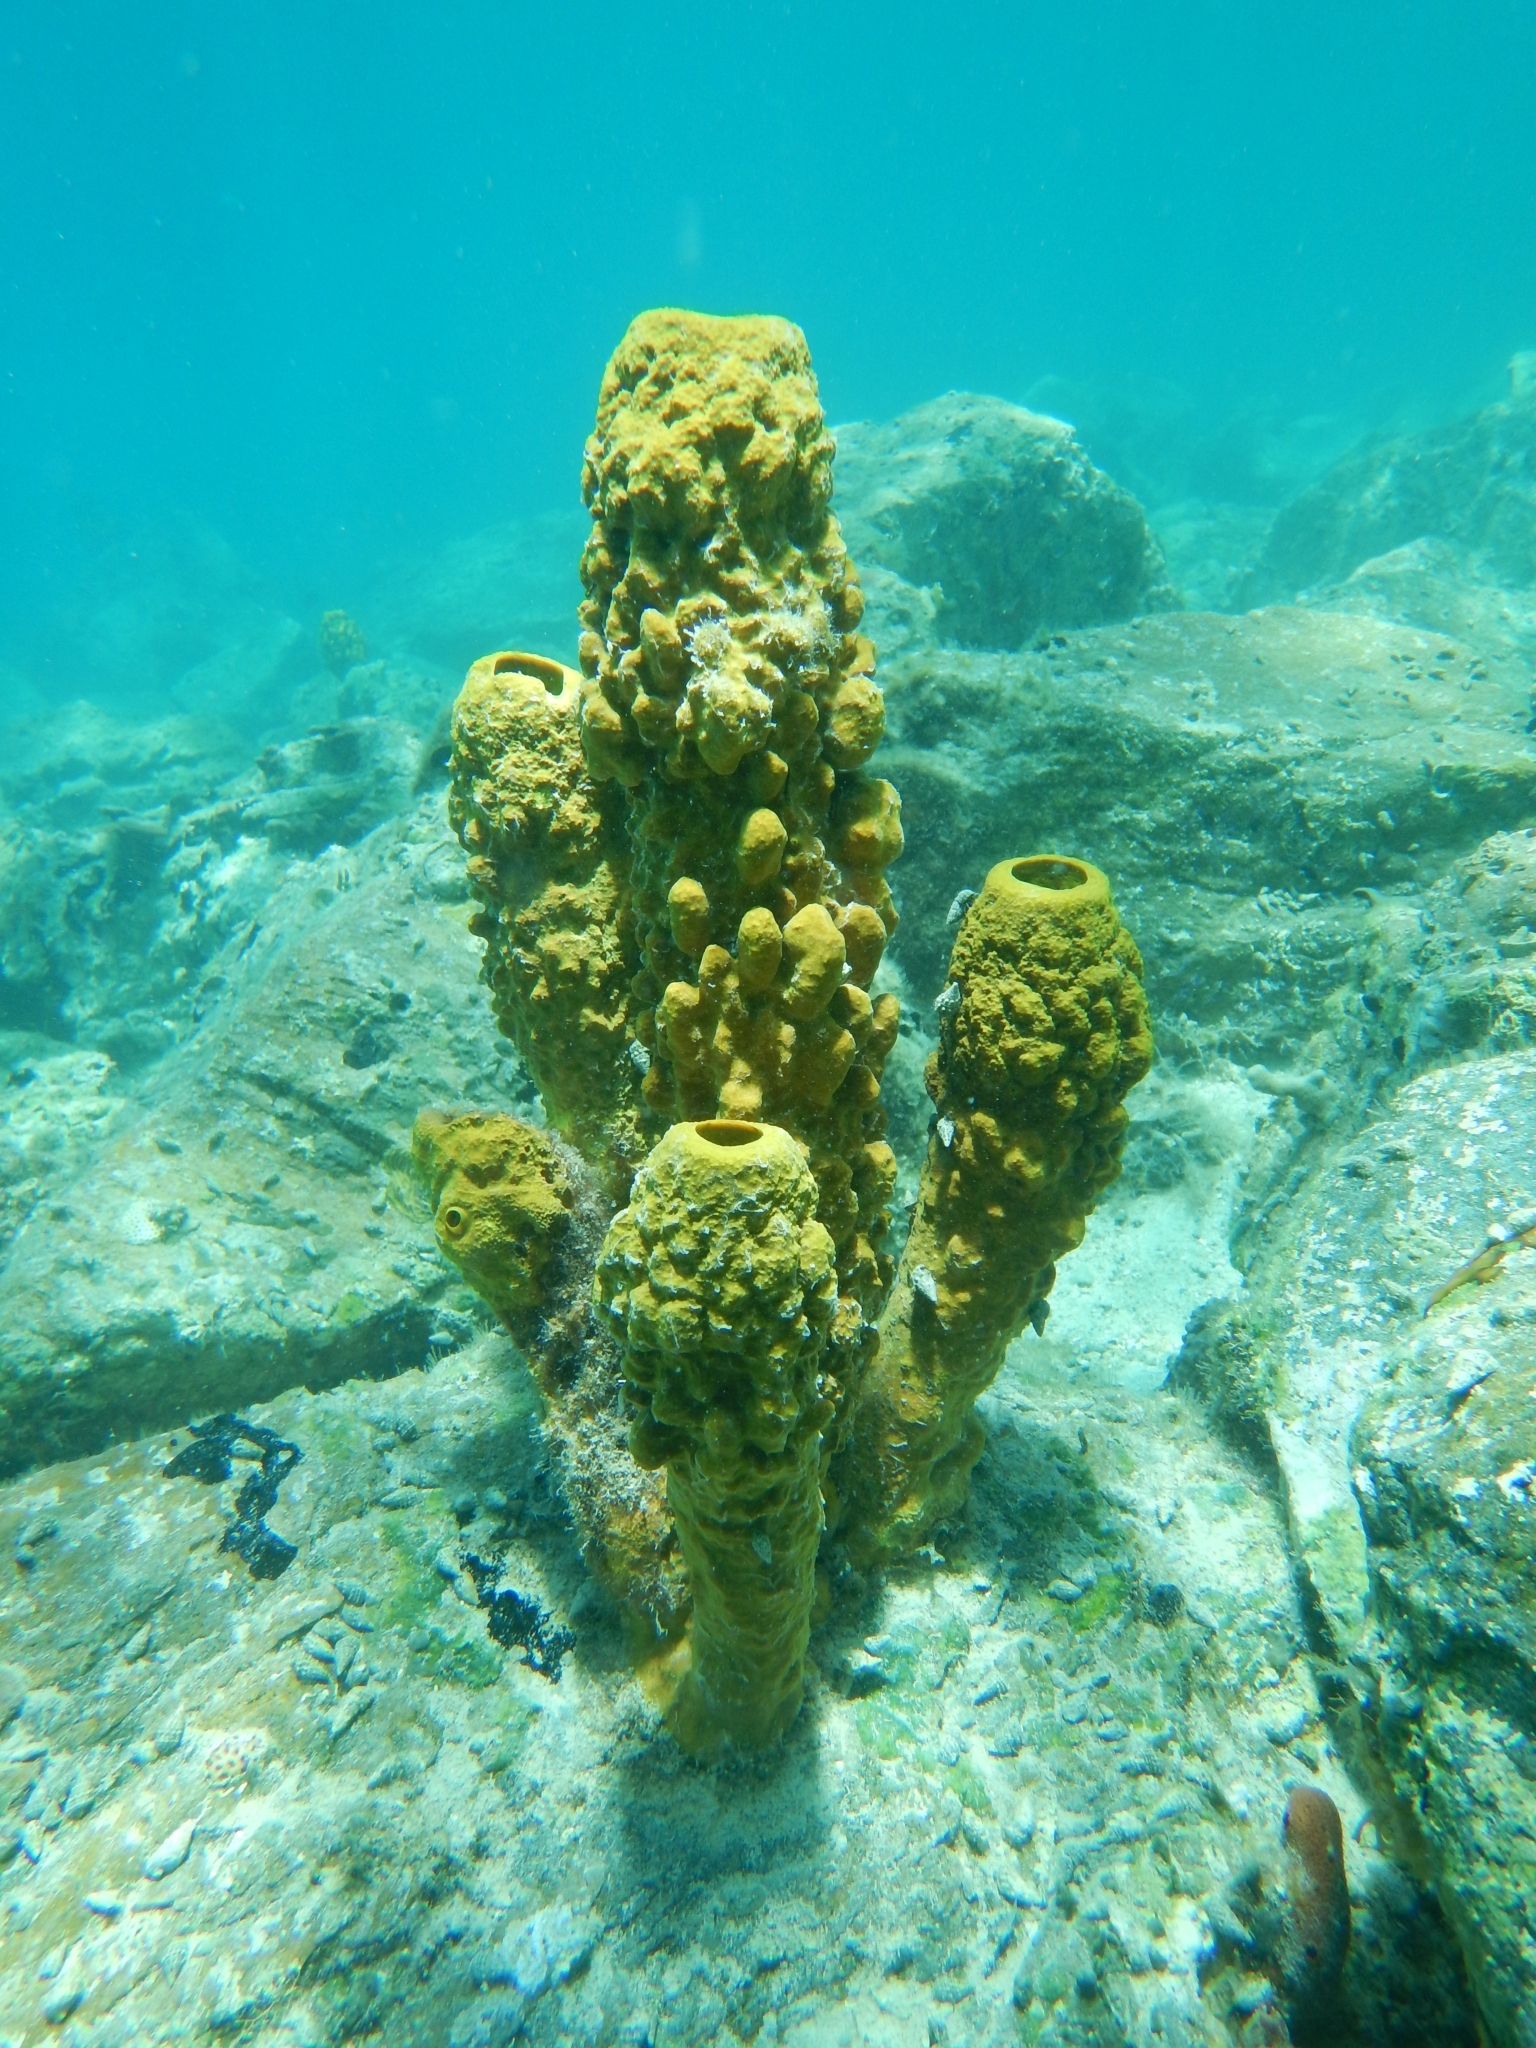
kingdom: Animalia
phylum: Porifera
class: Demospongiae
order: Verongiida
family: Aplysinidae
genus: Aplysina
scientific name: Aplysina fistularis
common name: Candle sponge
